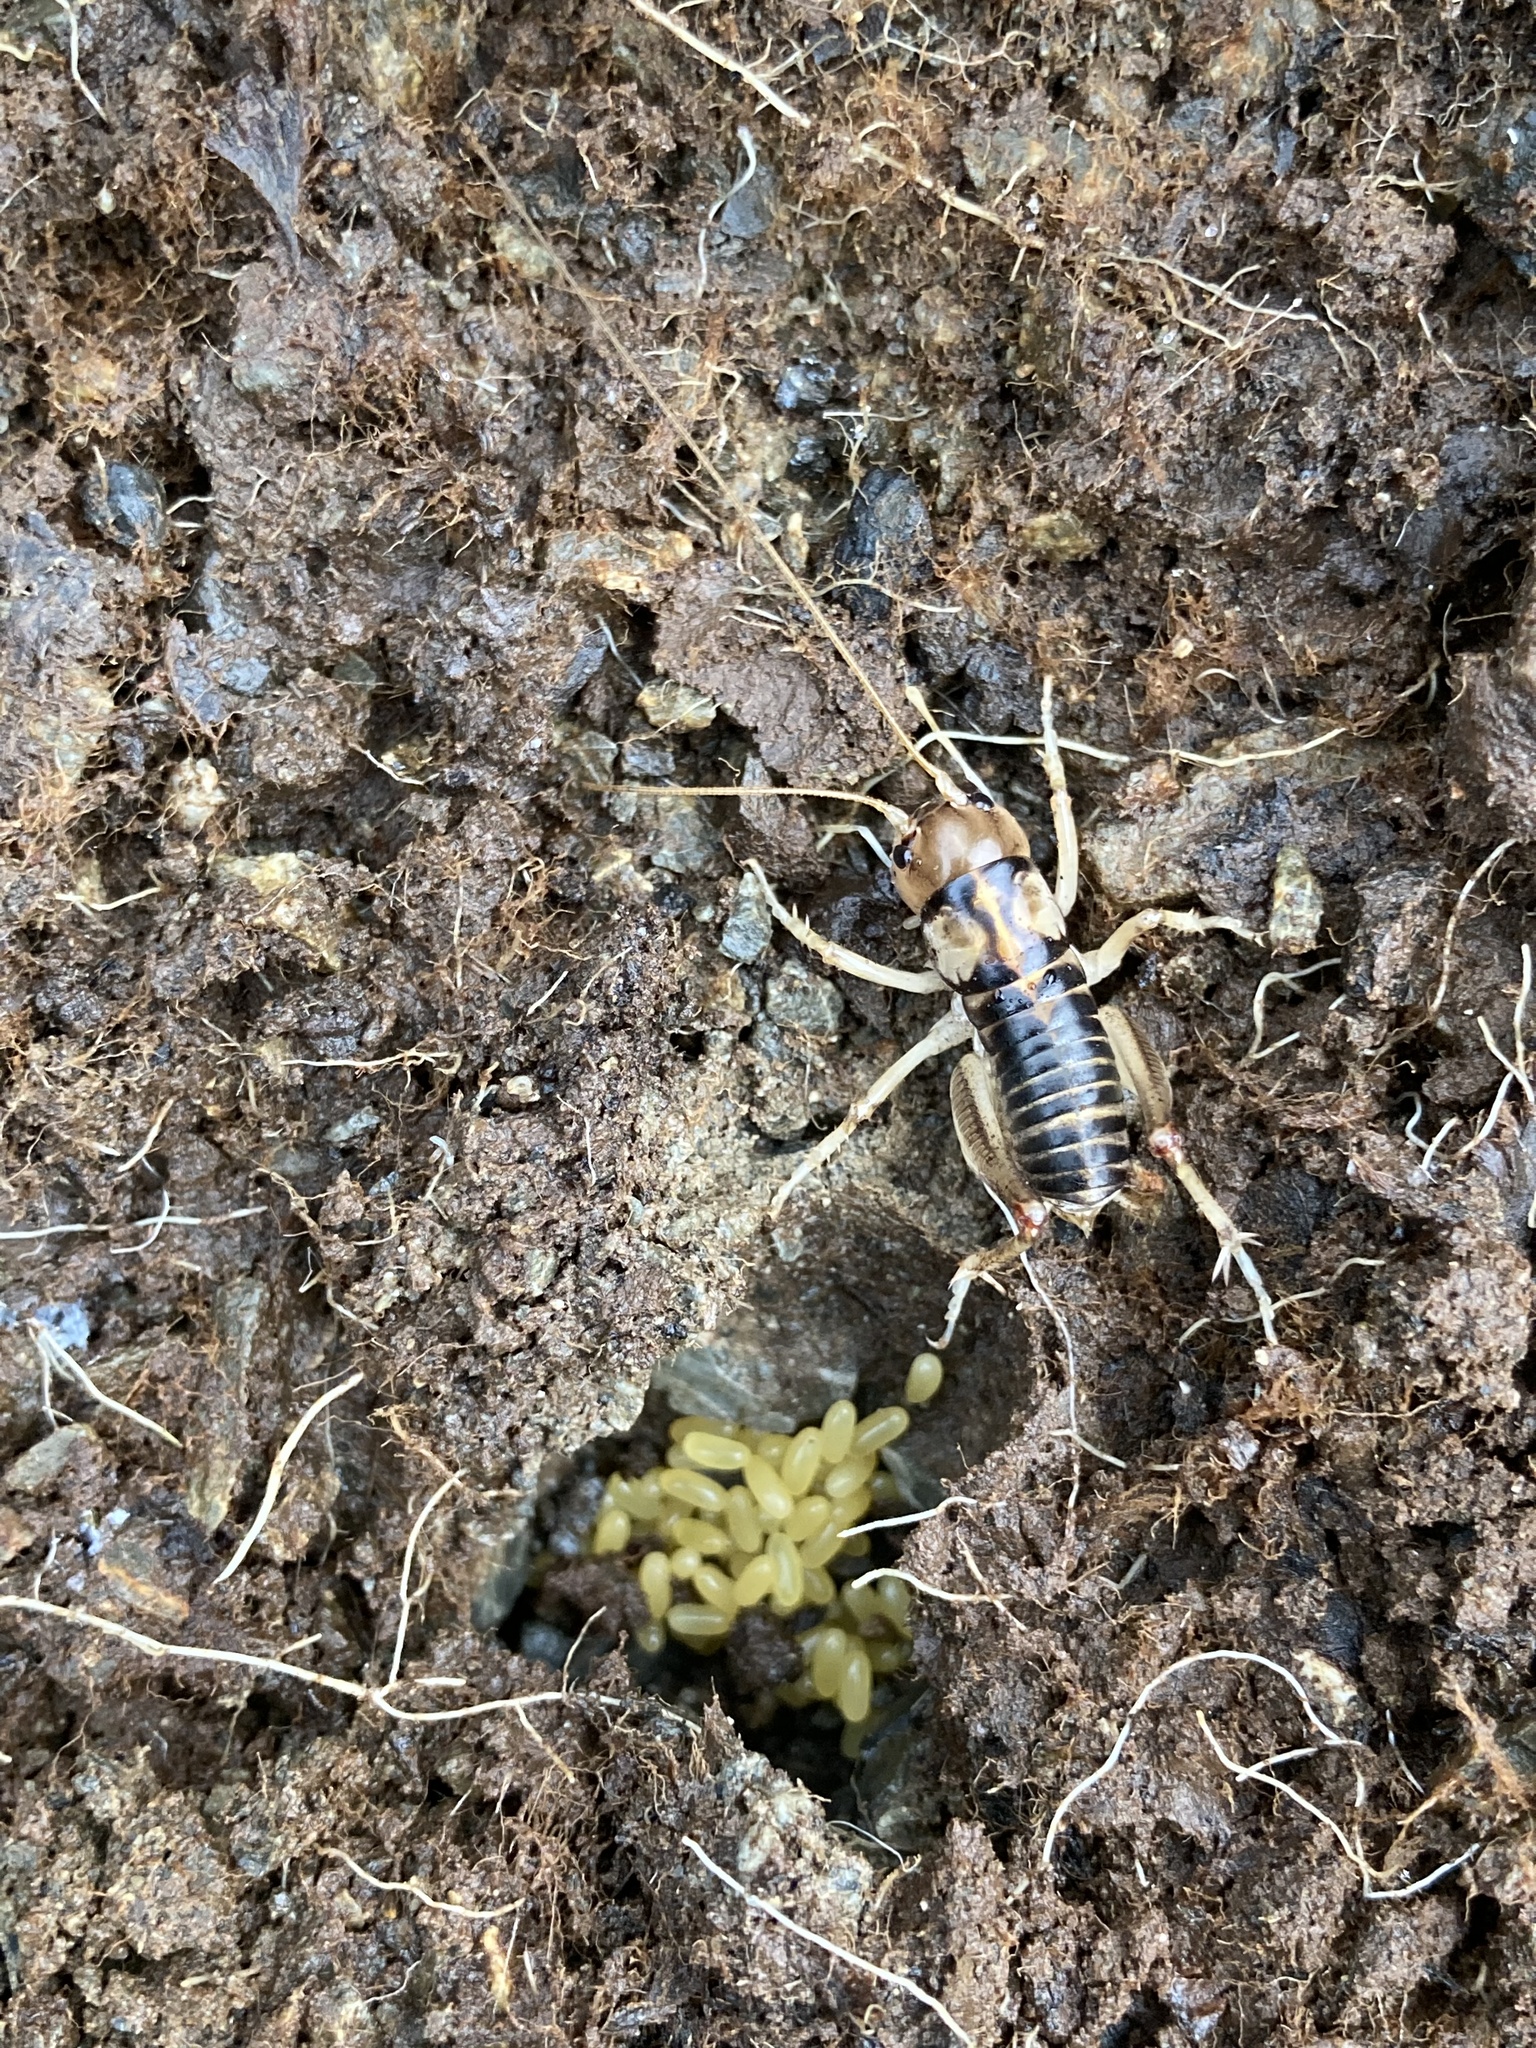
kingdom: Animalia
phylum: Arthropoda
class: Insecta
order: Orthoptera
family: Anostostomatidae
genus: Hemiandrus
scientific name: Hemiandrus pallitarsis
